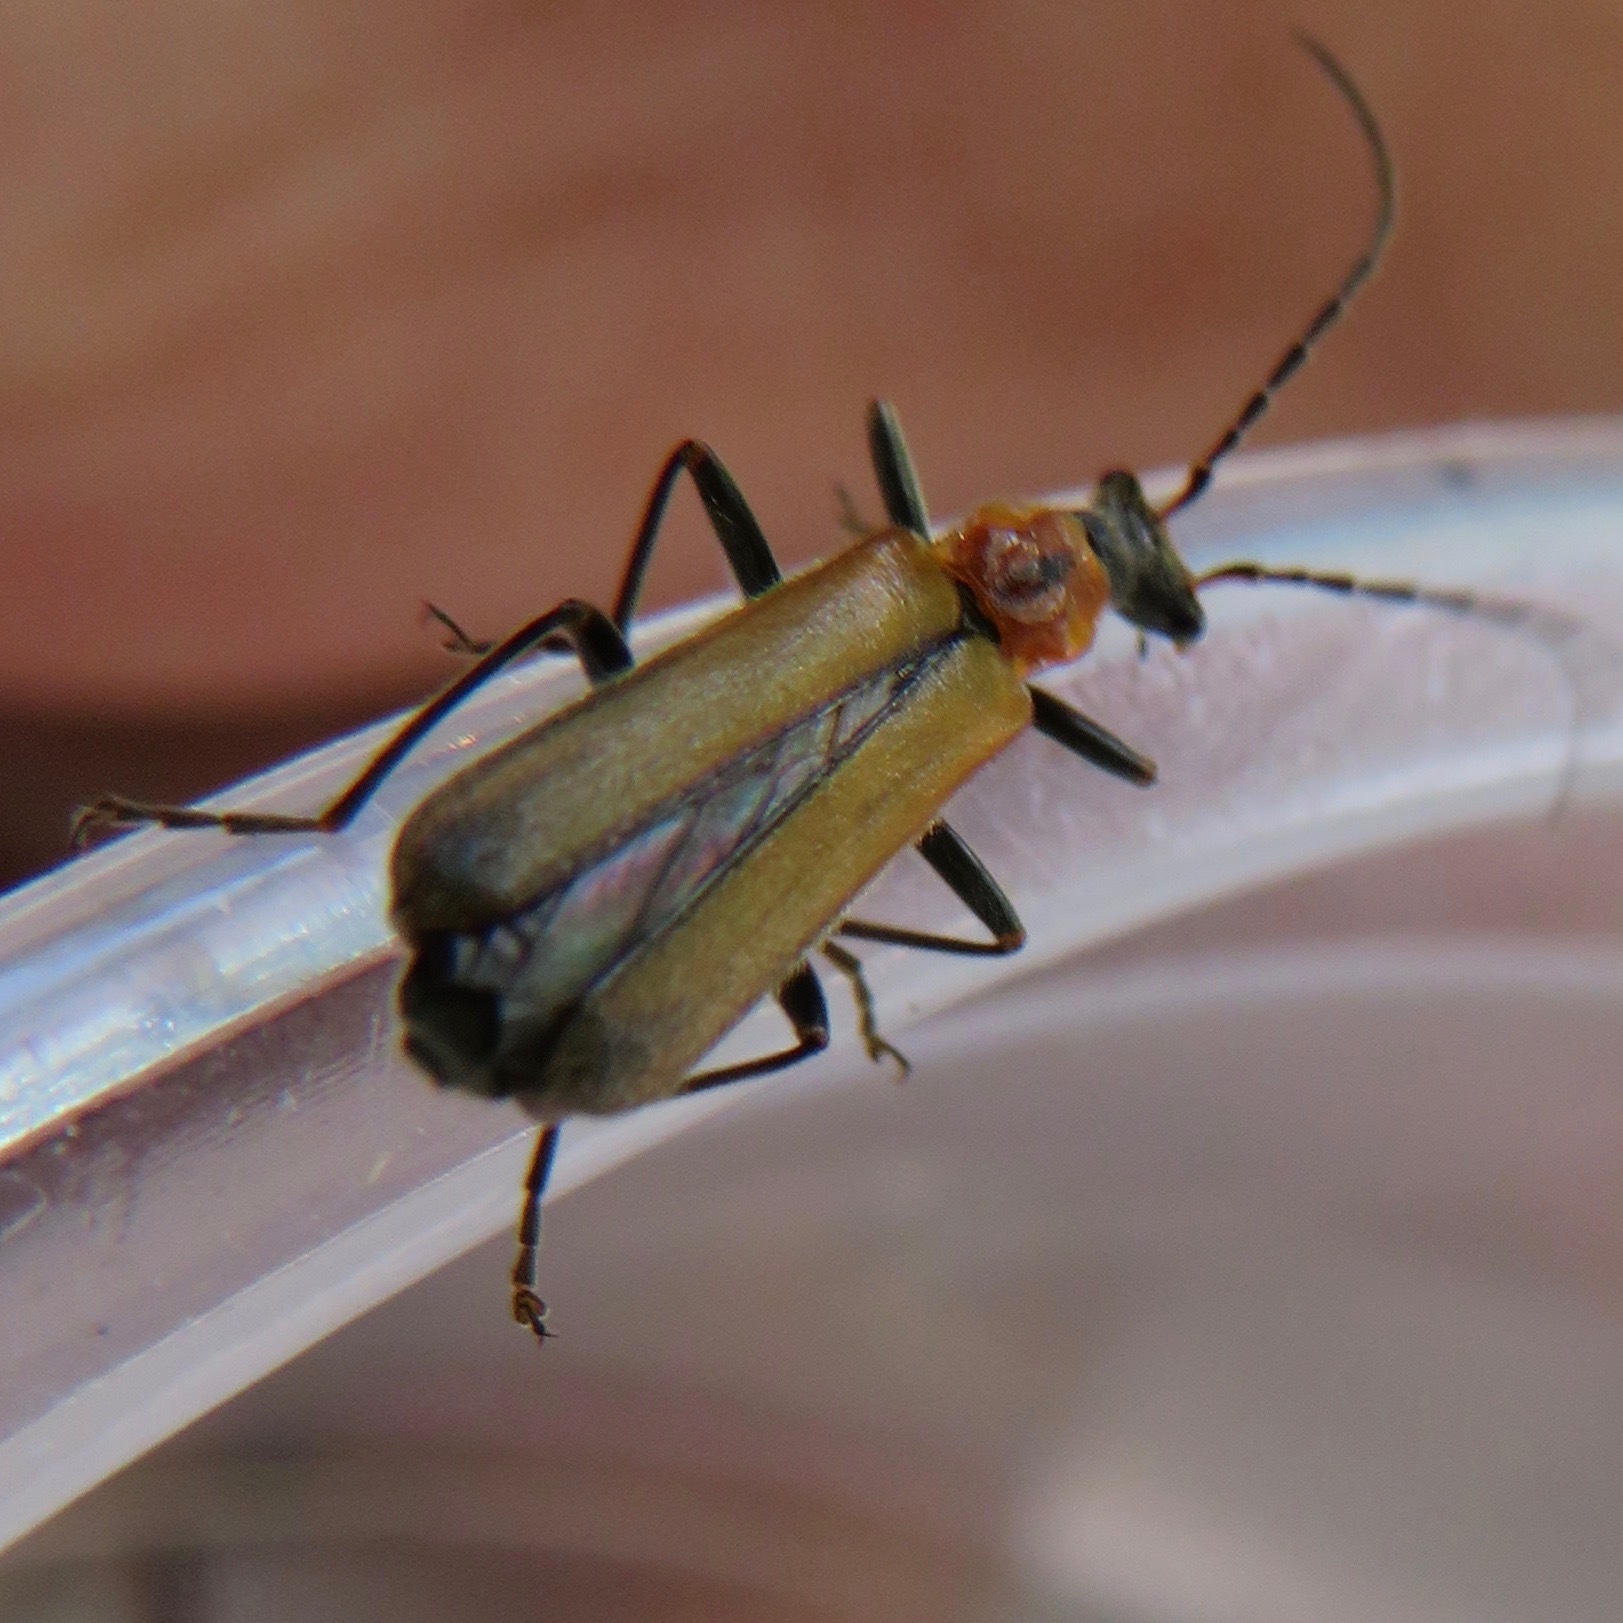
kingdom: Animalia
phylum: Arthropoda
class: Insecta
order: Coleoptera
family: Cantharidae
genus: Dichelotarsus
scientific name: Dichelotarsus cavicollis
